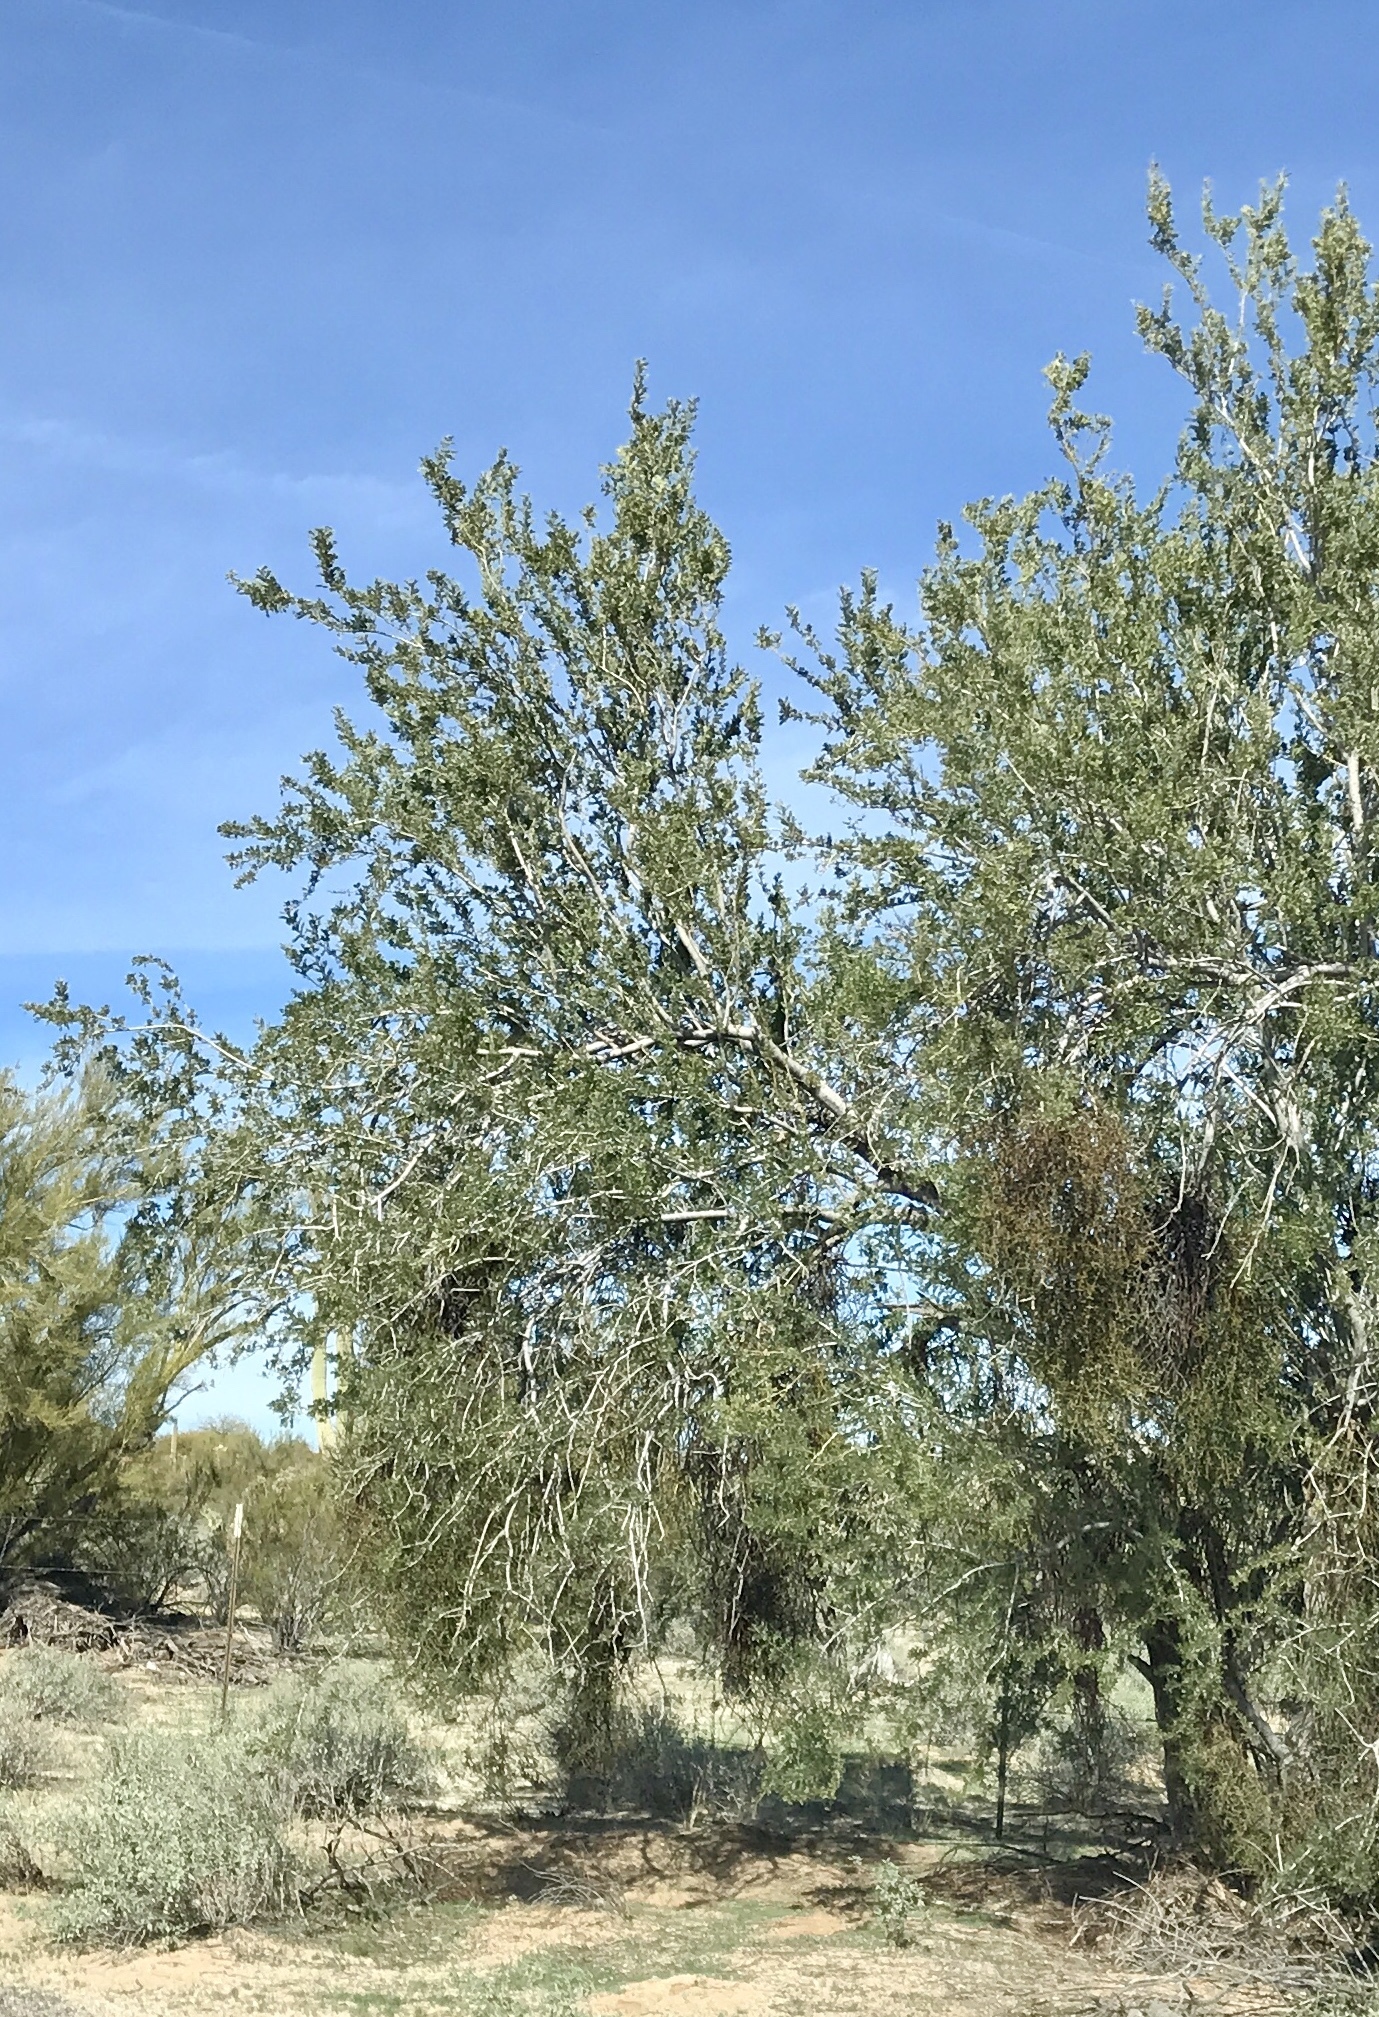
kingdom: Plantae
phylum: Tracheophyta
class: Magnoliopsida
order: Fabales
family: Fabaceae
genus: Olneya
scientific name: Olneya tesota
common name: Desert ironwood
